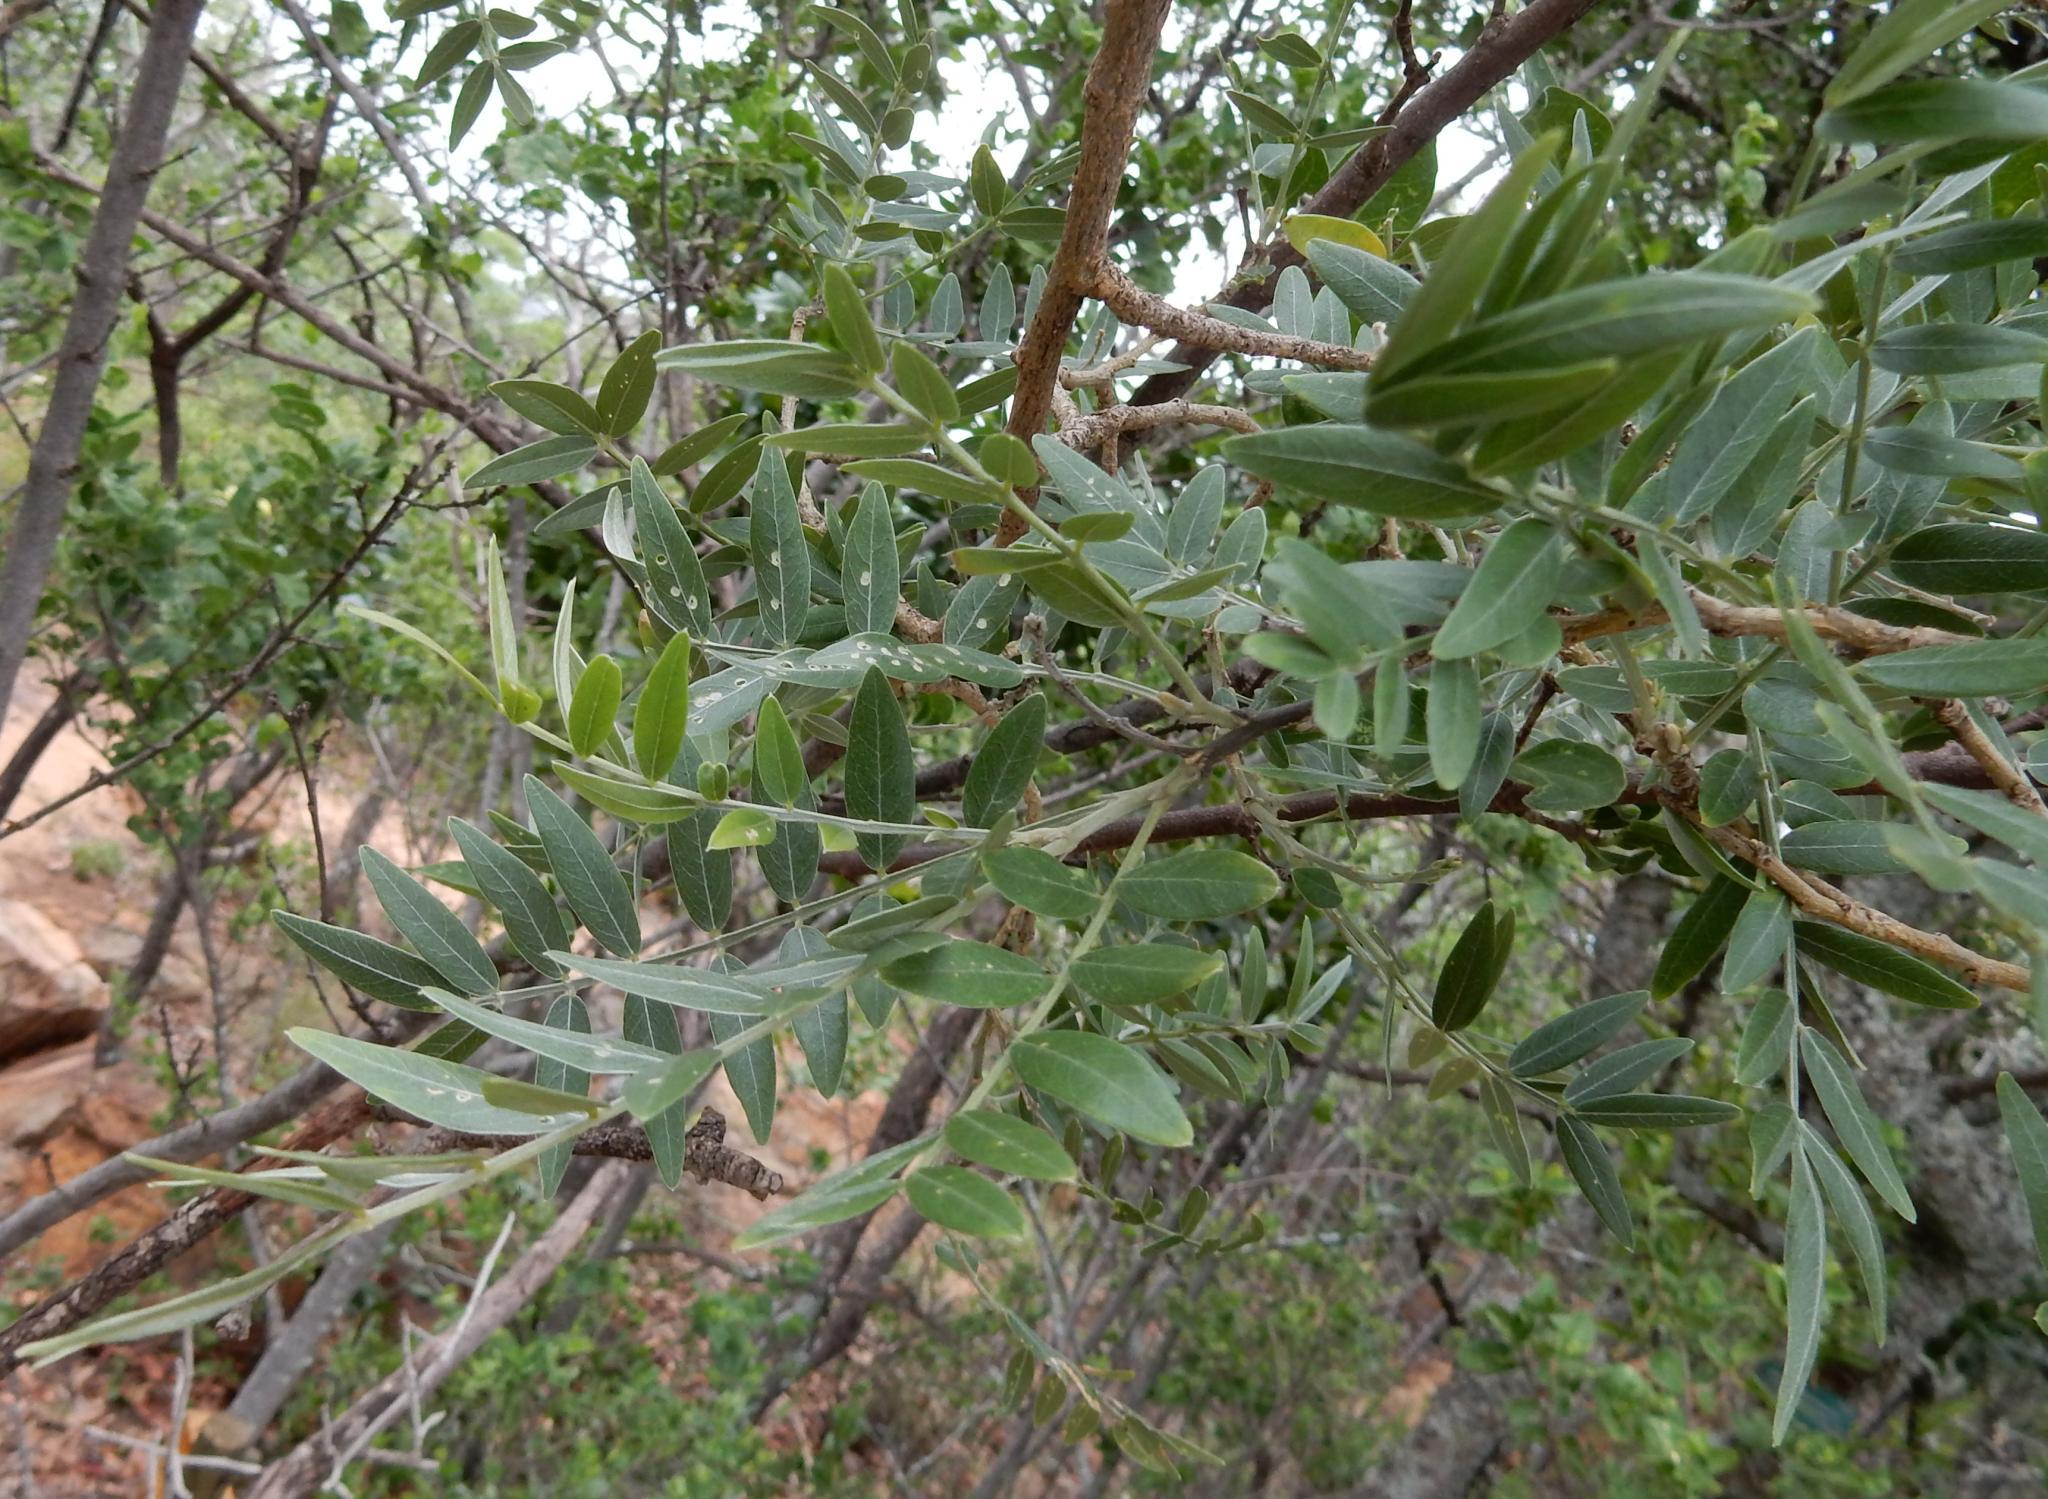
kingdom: Plantae
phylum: Tracheophyta
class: Magnoliopsida
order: Fabales
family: Fabaceae
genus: Mundulea
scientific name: Mundulea sericea
